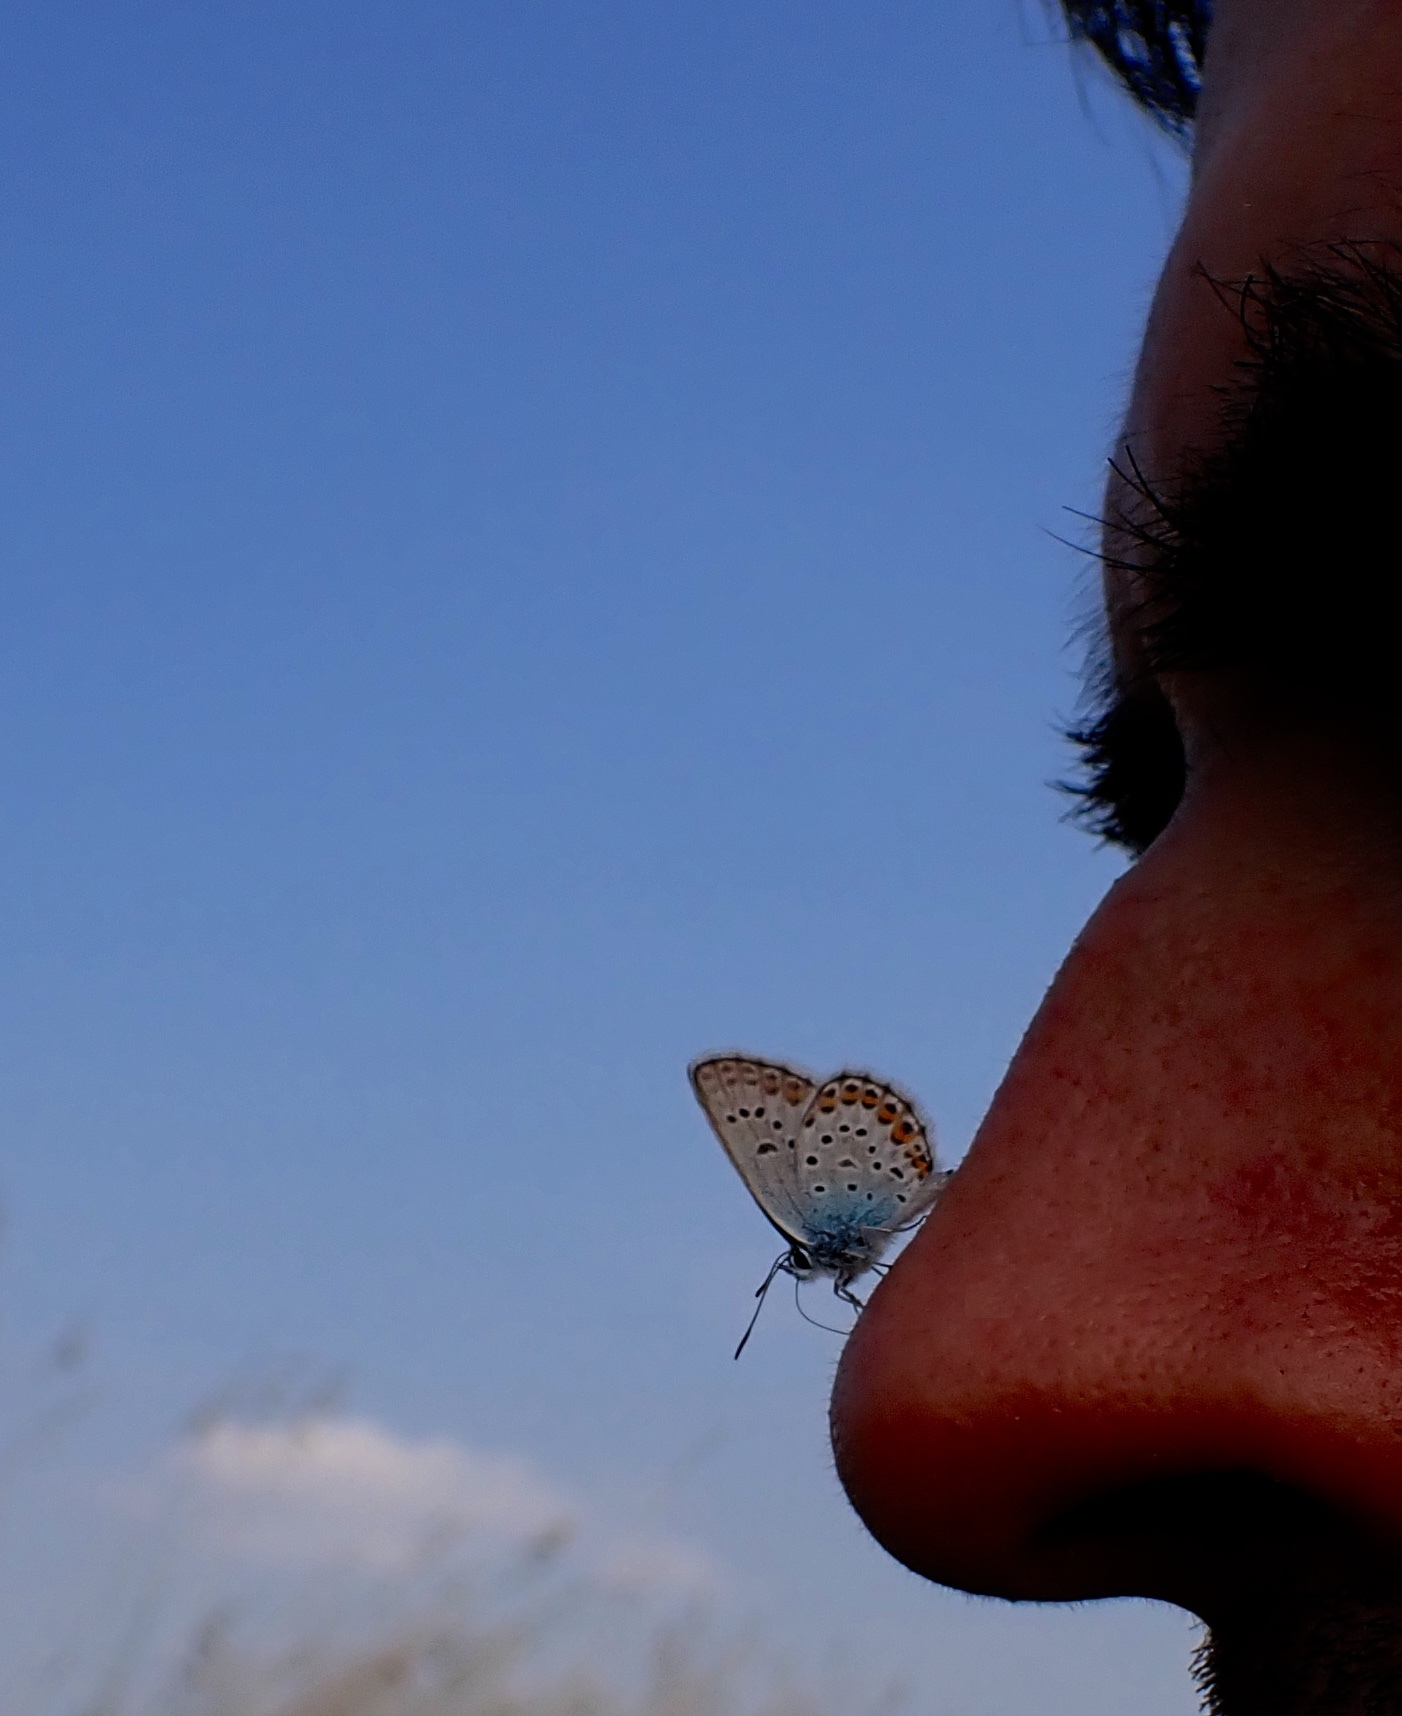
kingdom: Animalia
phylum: Arthropoda
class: Insecta
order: Lepidoptera
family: Lycaenidae
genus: Plebejus
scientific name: Plebejus argus
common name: Silver-studded blue
